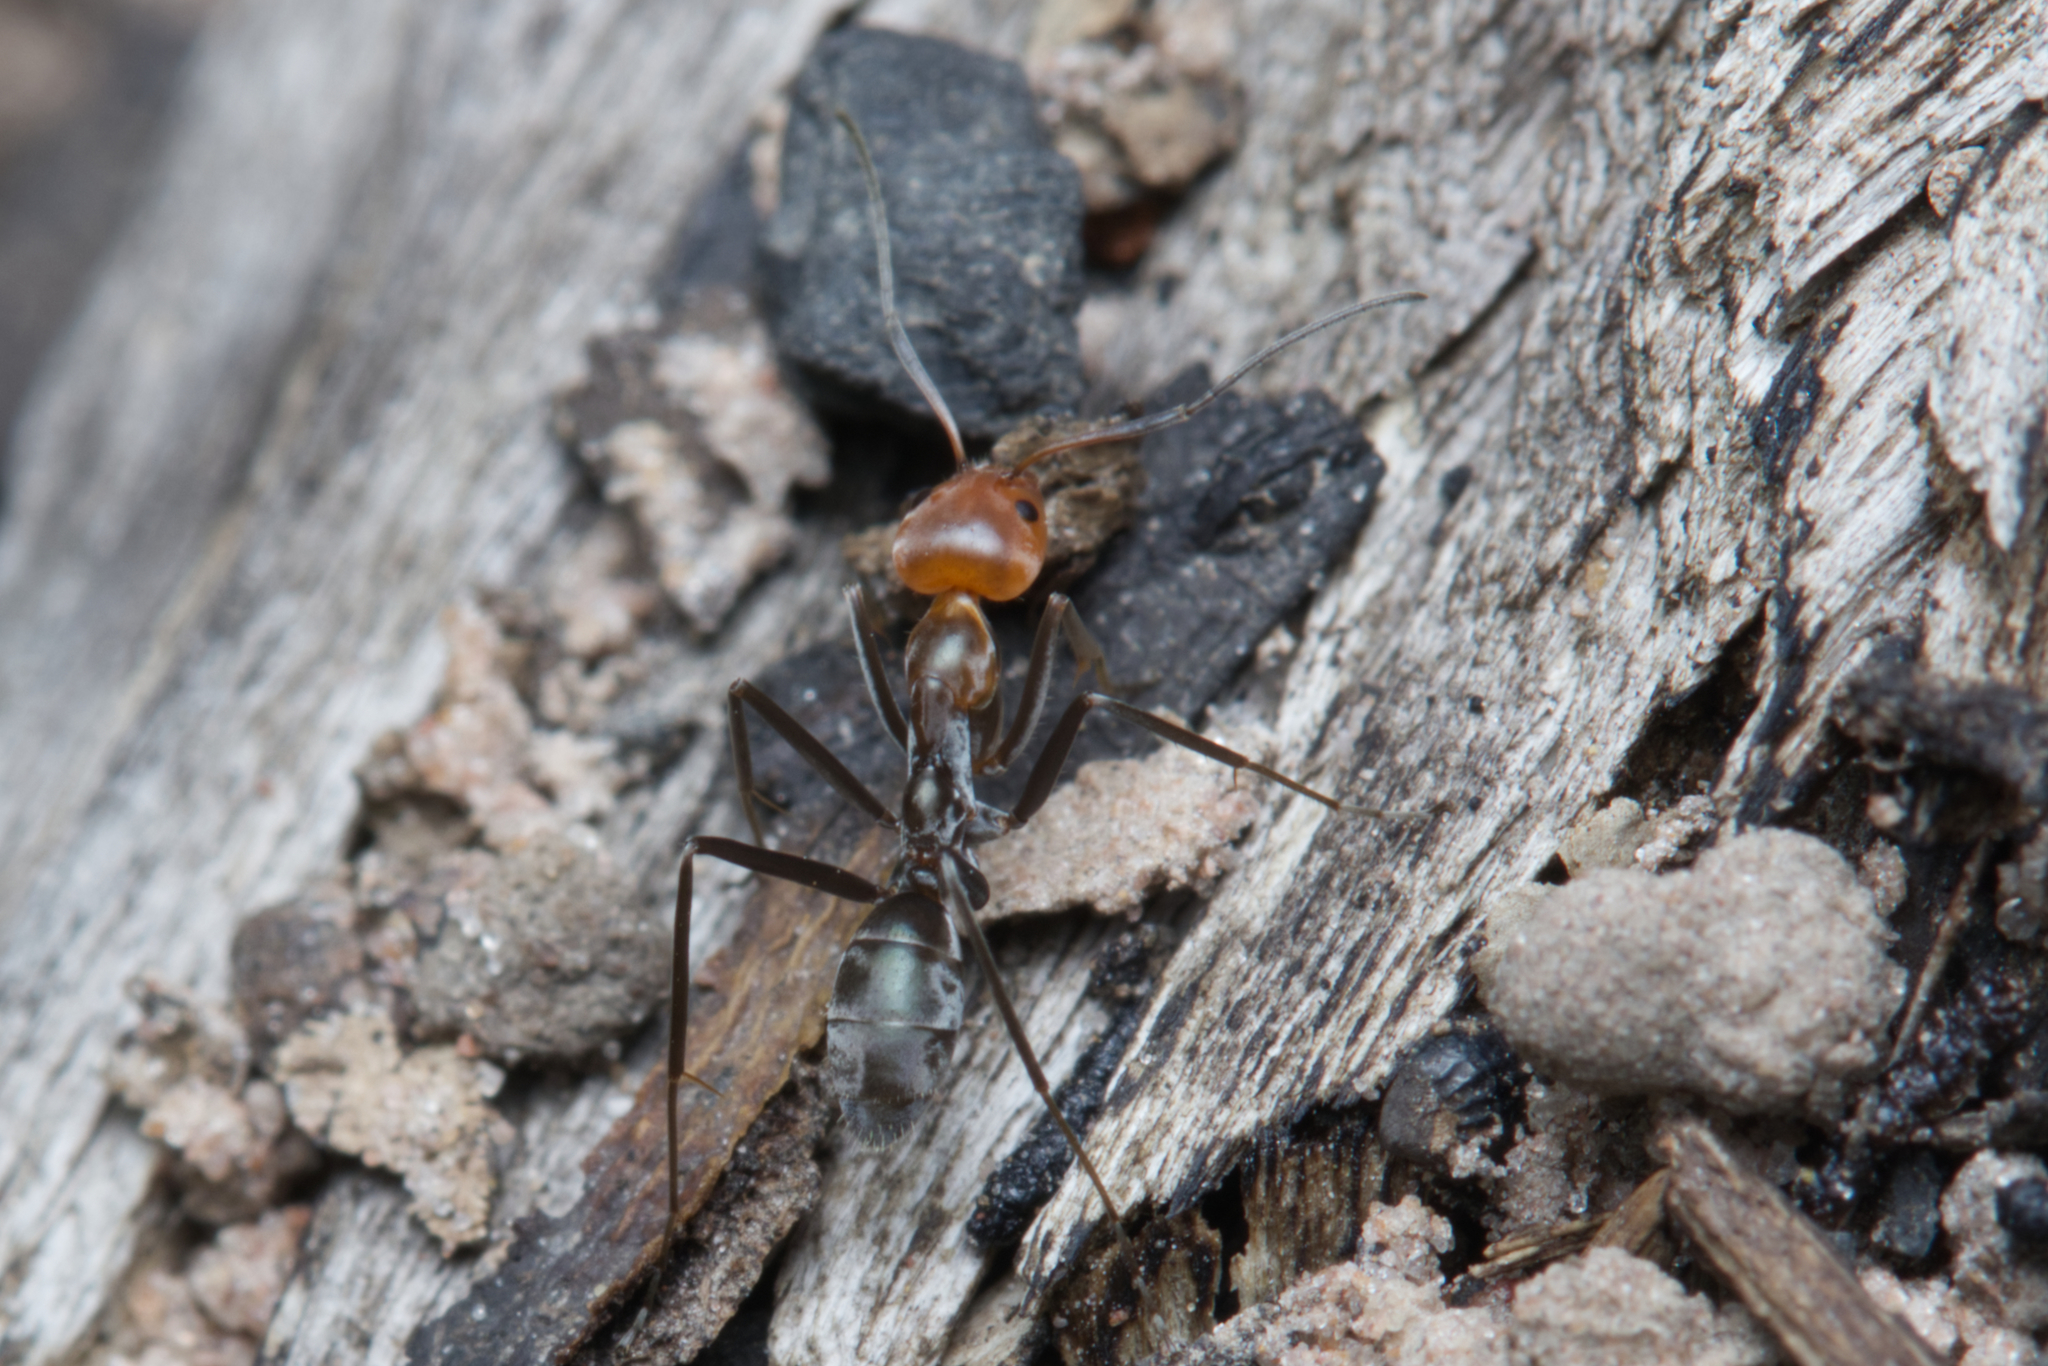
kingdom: Animalia
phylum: Arthropoda
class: Insecta
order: Hymenoptera
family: Formicidae
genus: Iridomyrmex
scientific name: Iridomyrmex
